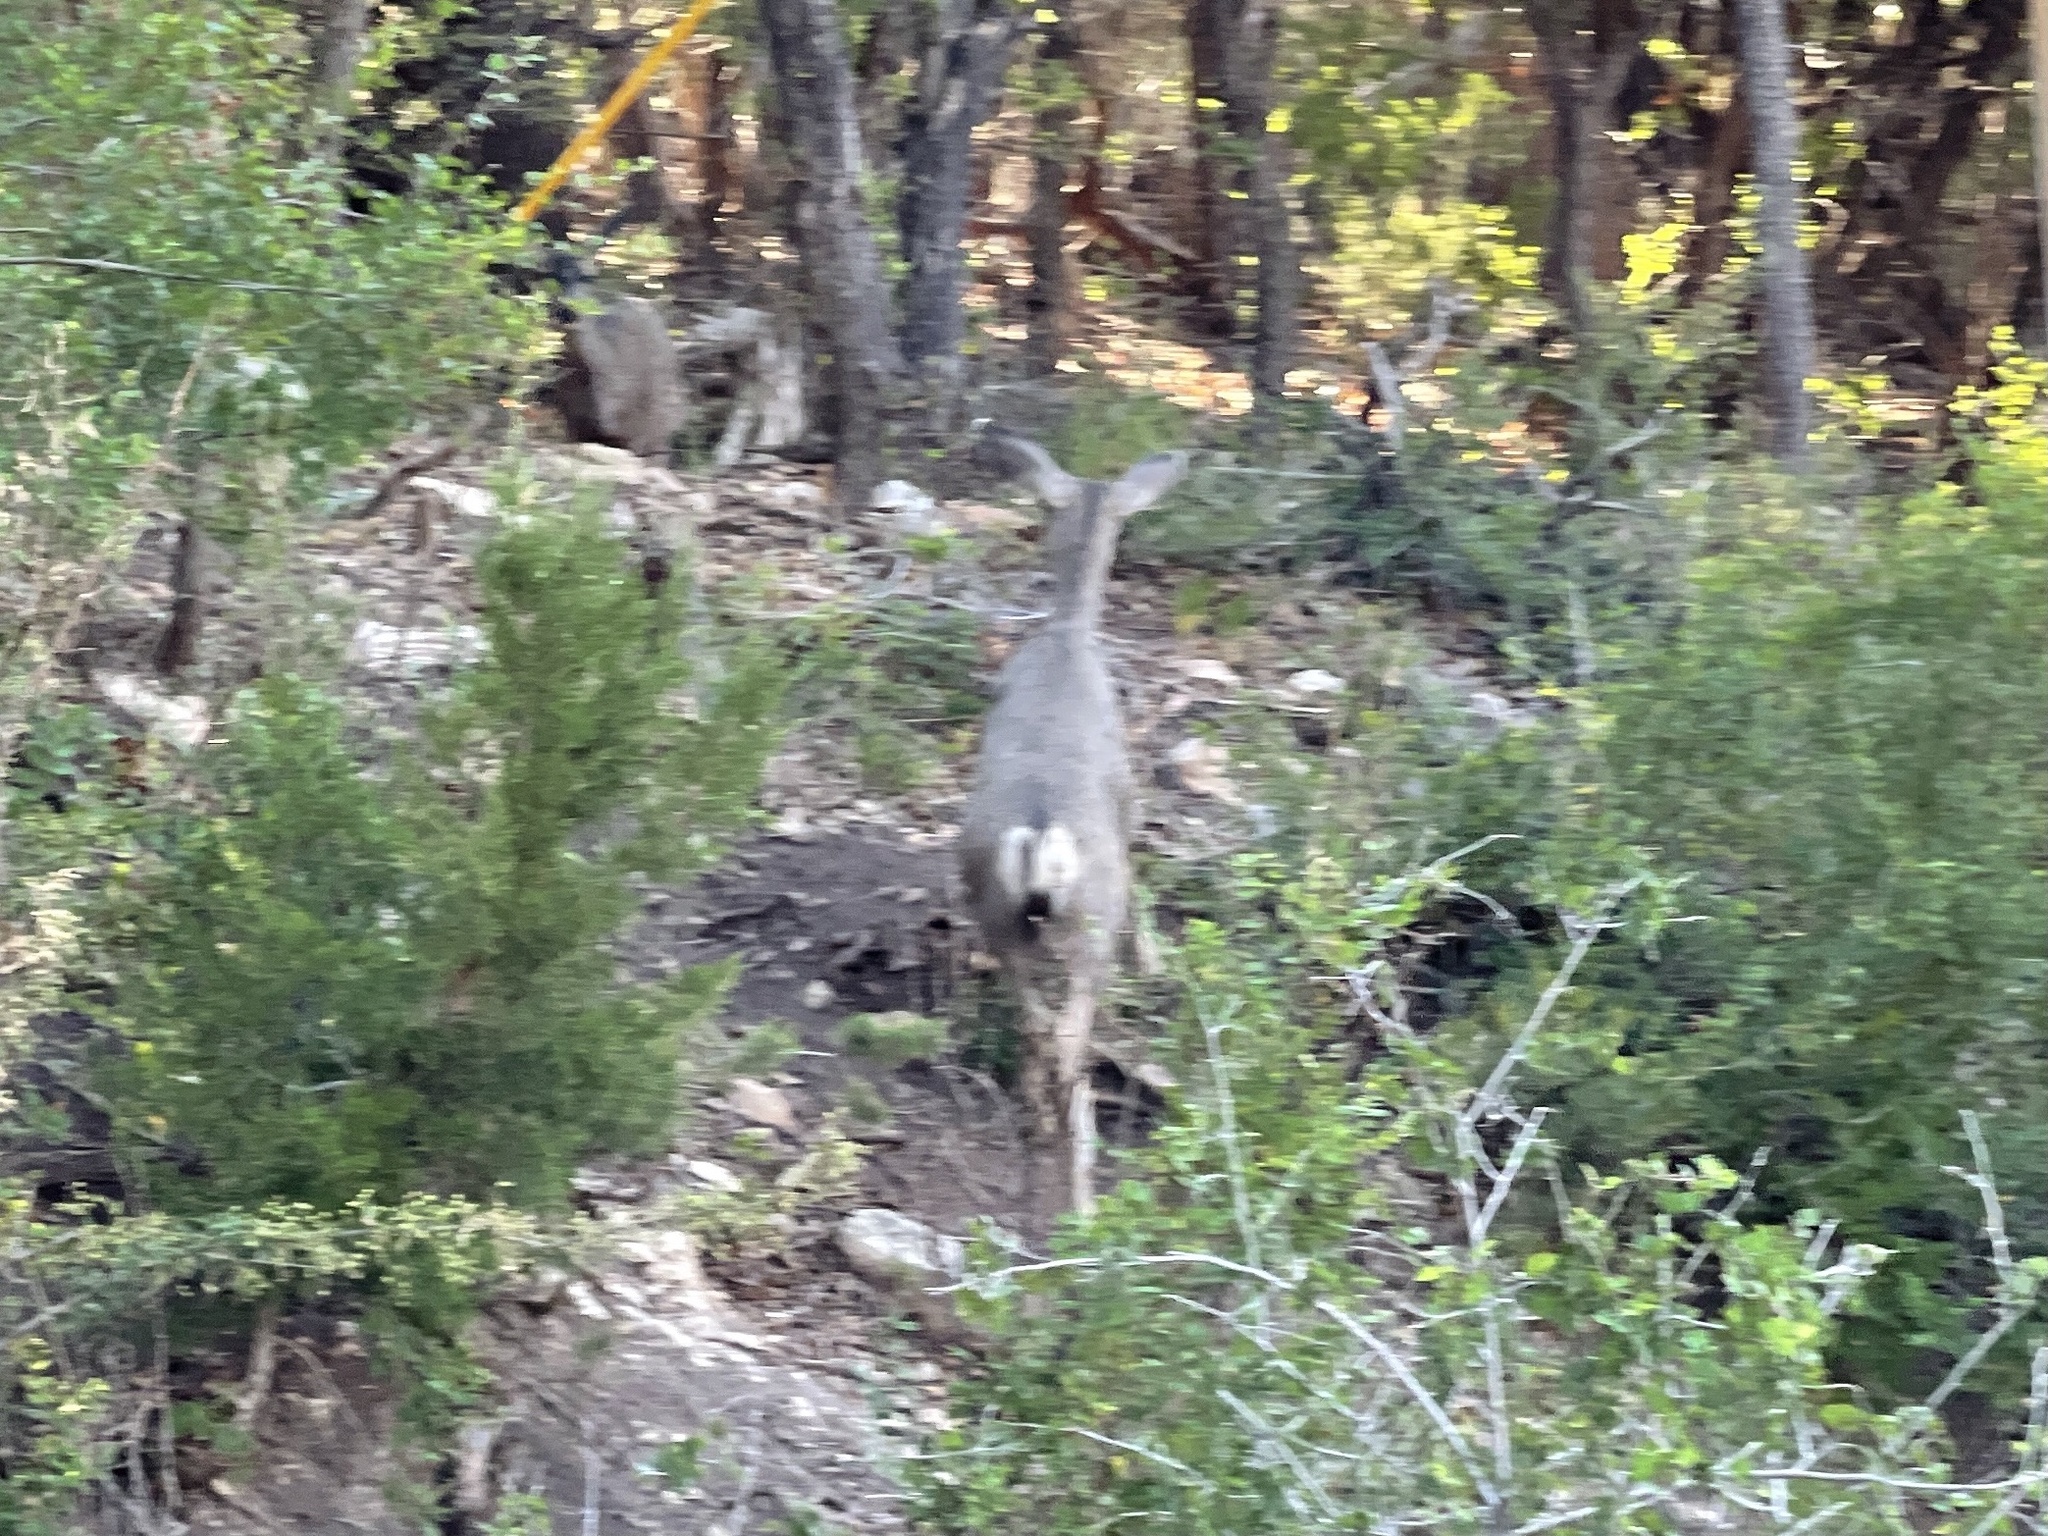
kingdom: Animalia
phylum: Chordata
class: Mammalia
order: Artiodactyla
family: Cervidae
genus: Odocoileus
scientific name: Odocoileus hemionus
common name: Mule deer
